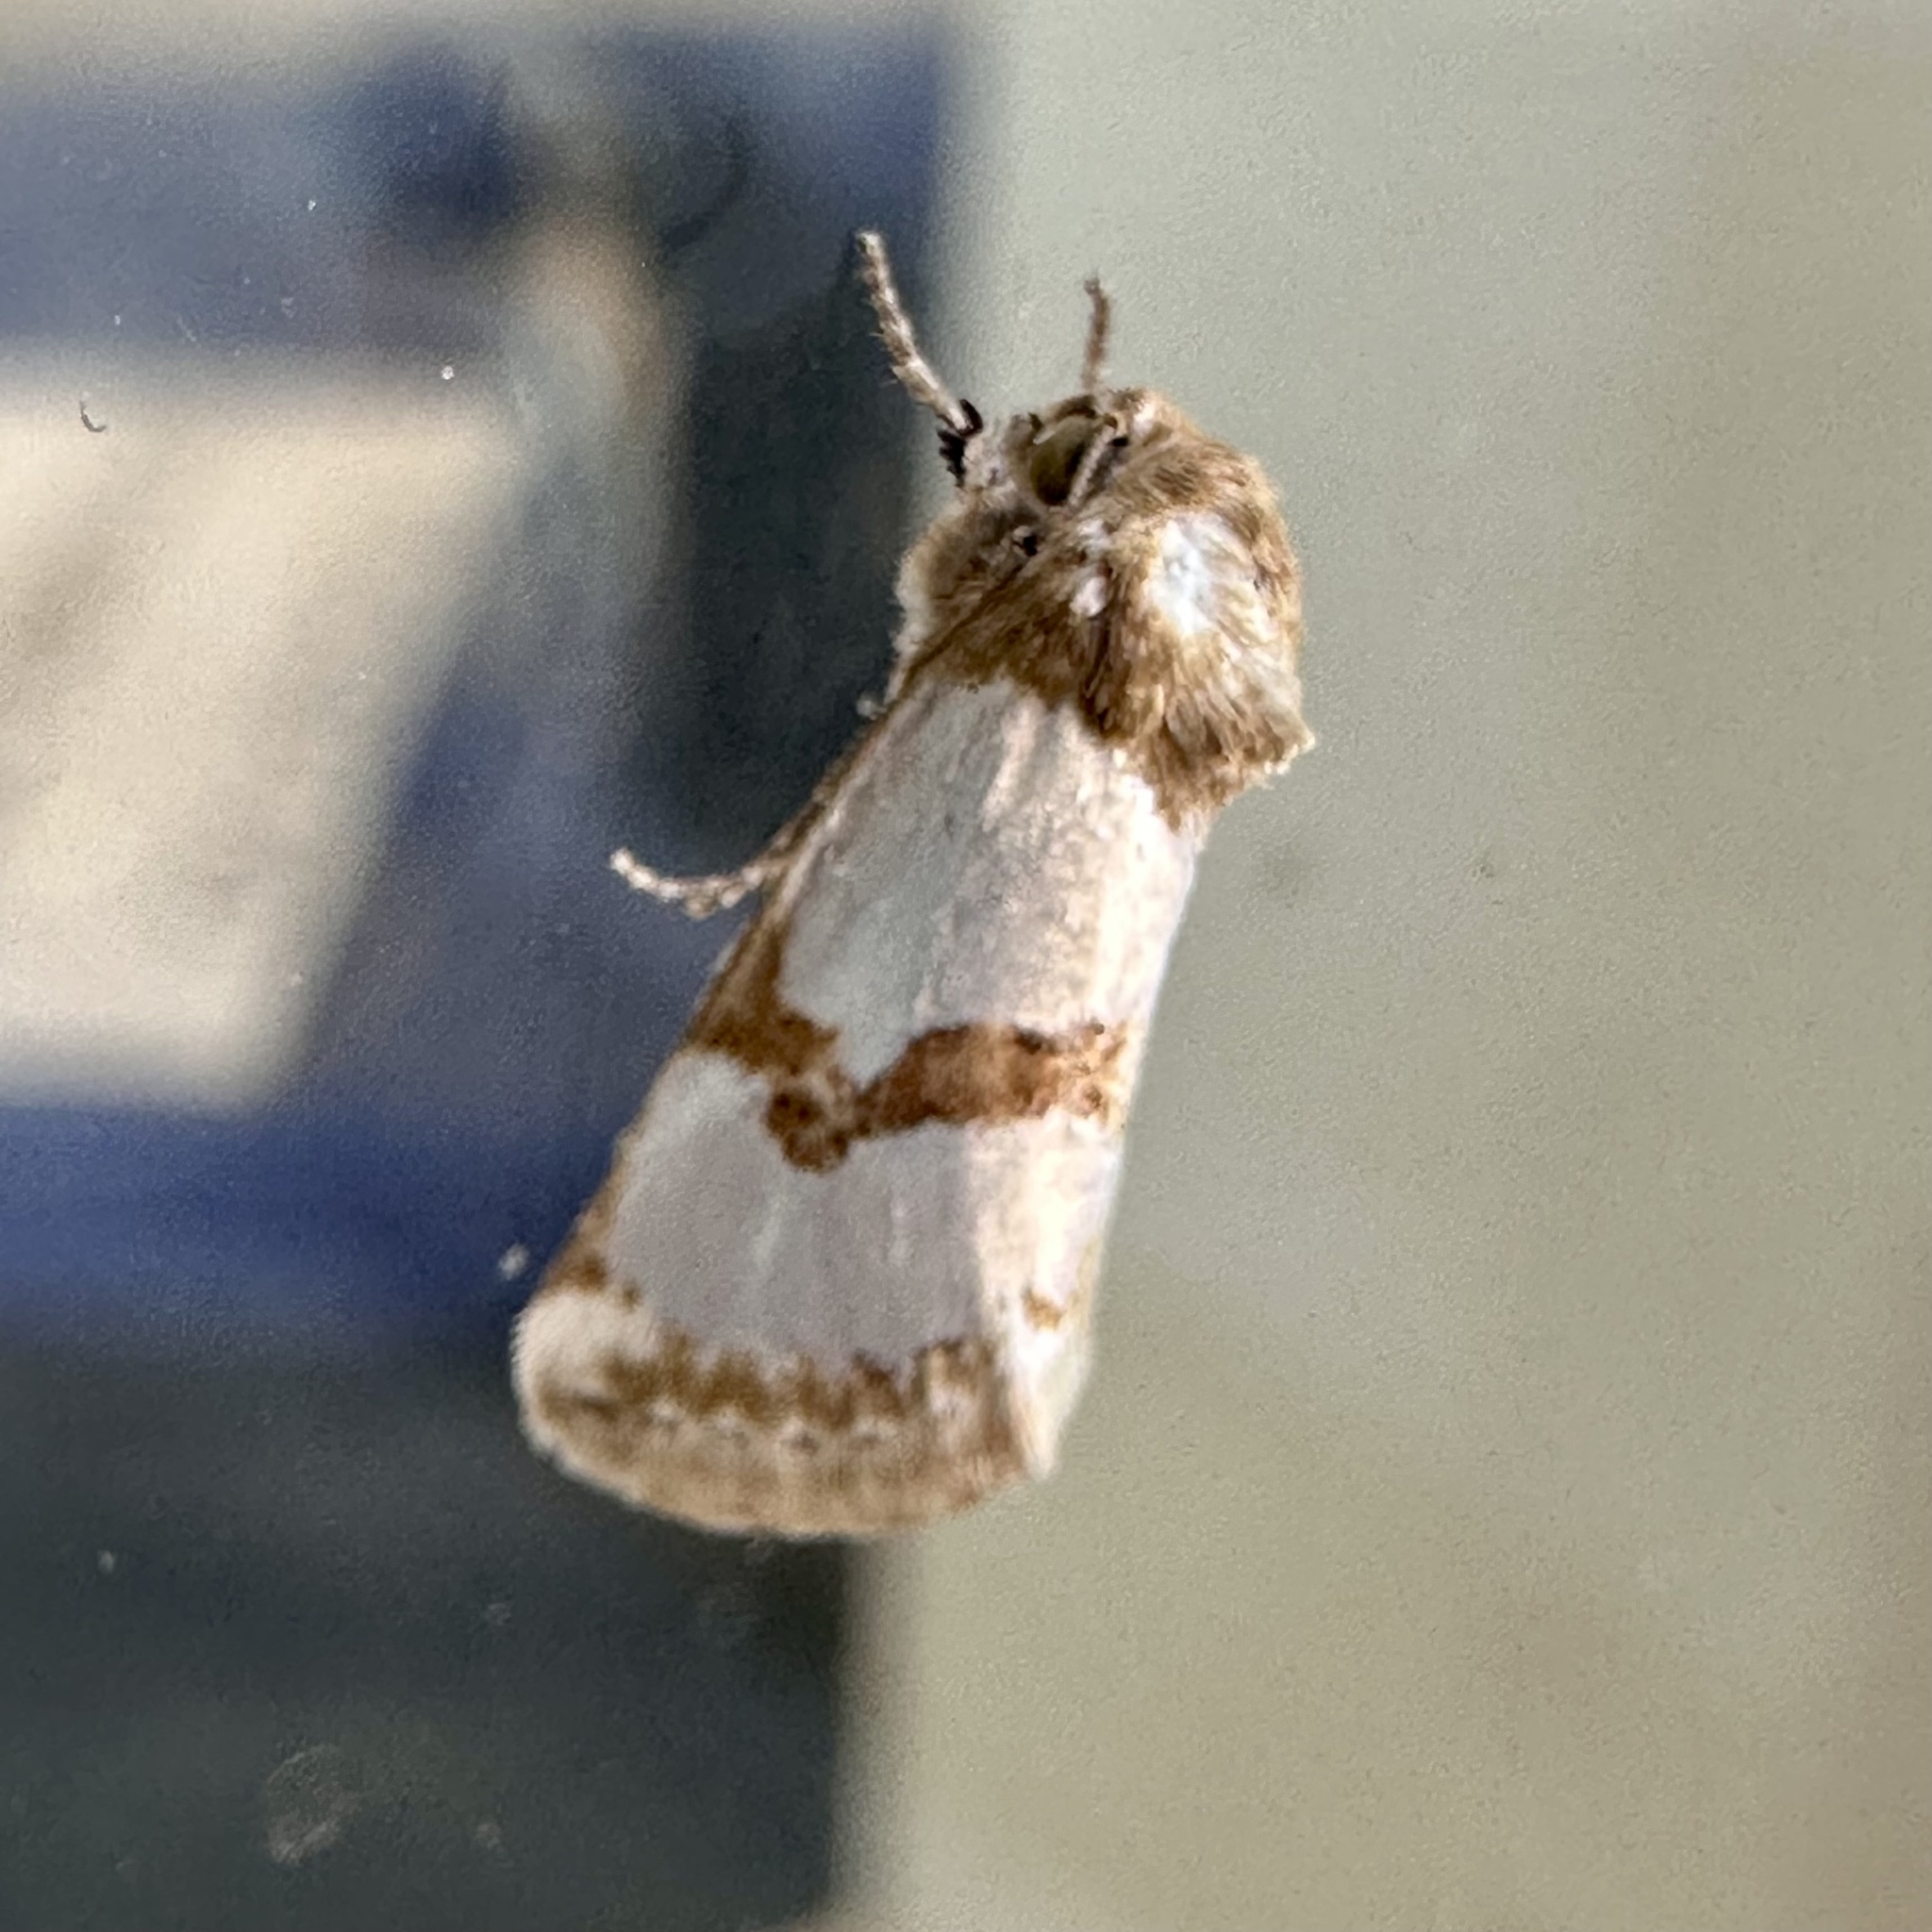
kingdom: Animalia
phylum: Arthropoda
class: Insecta
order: Lepidoptera
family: Noctuidae
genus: Schinia
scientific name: Schinia chrysellus
